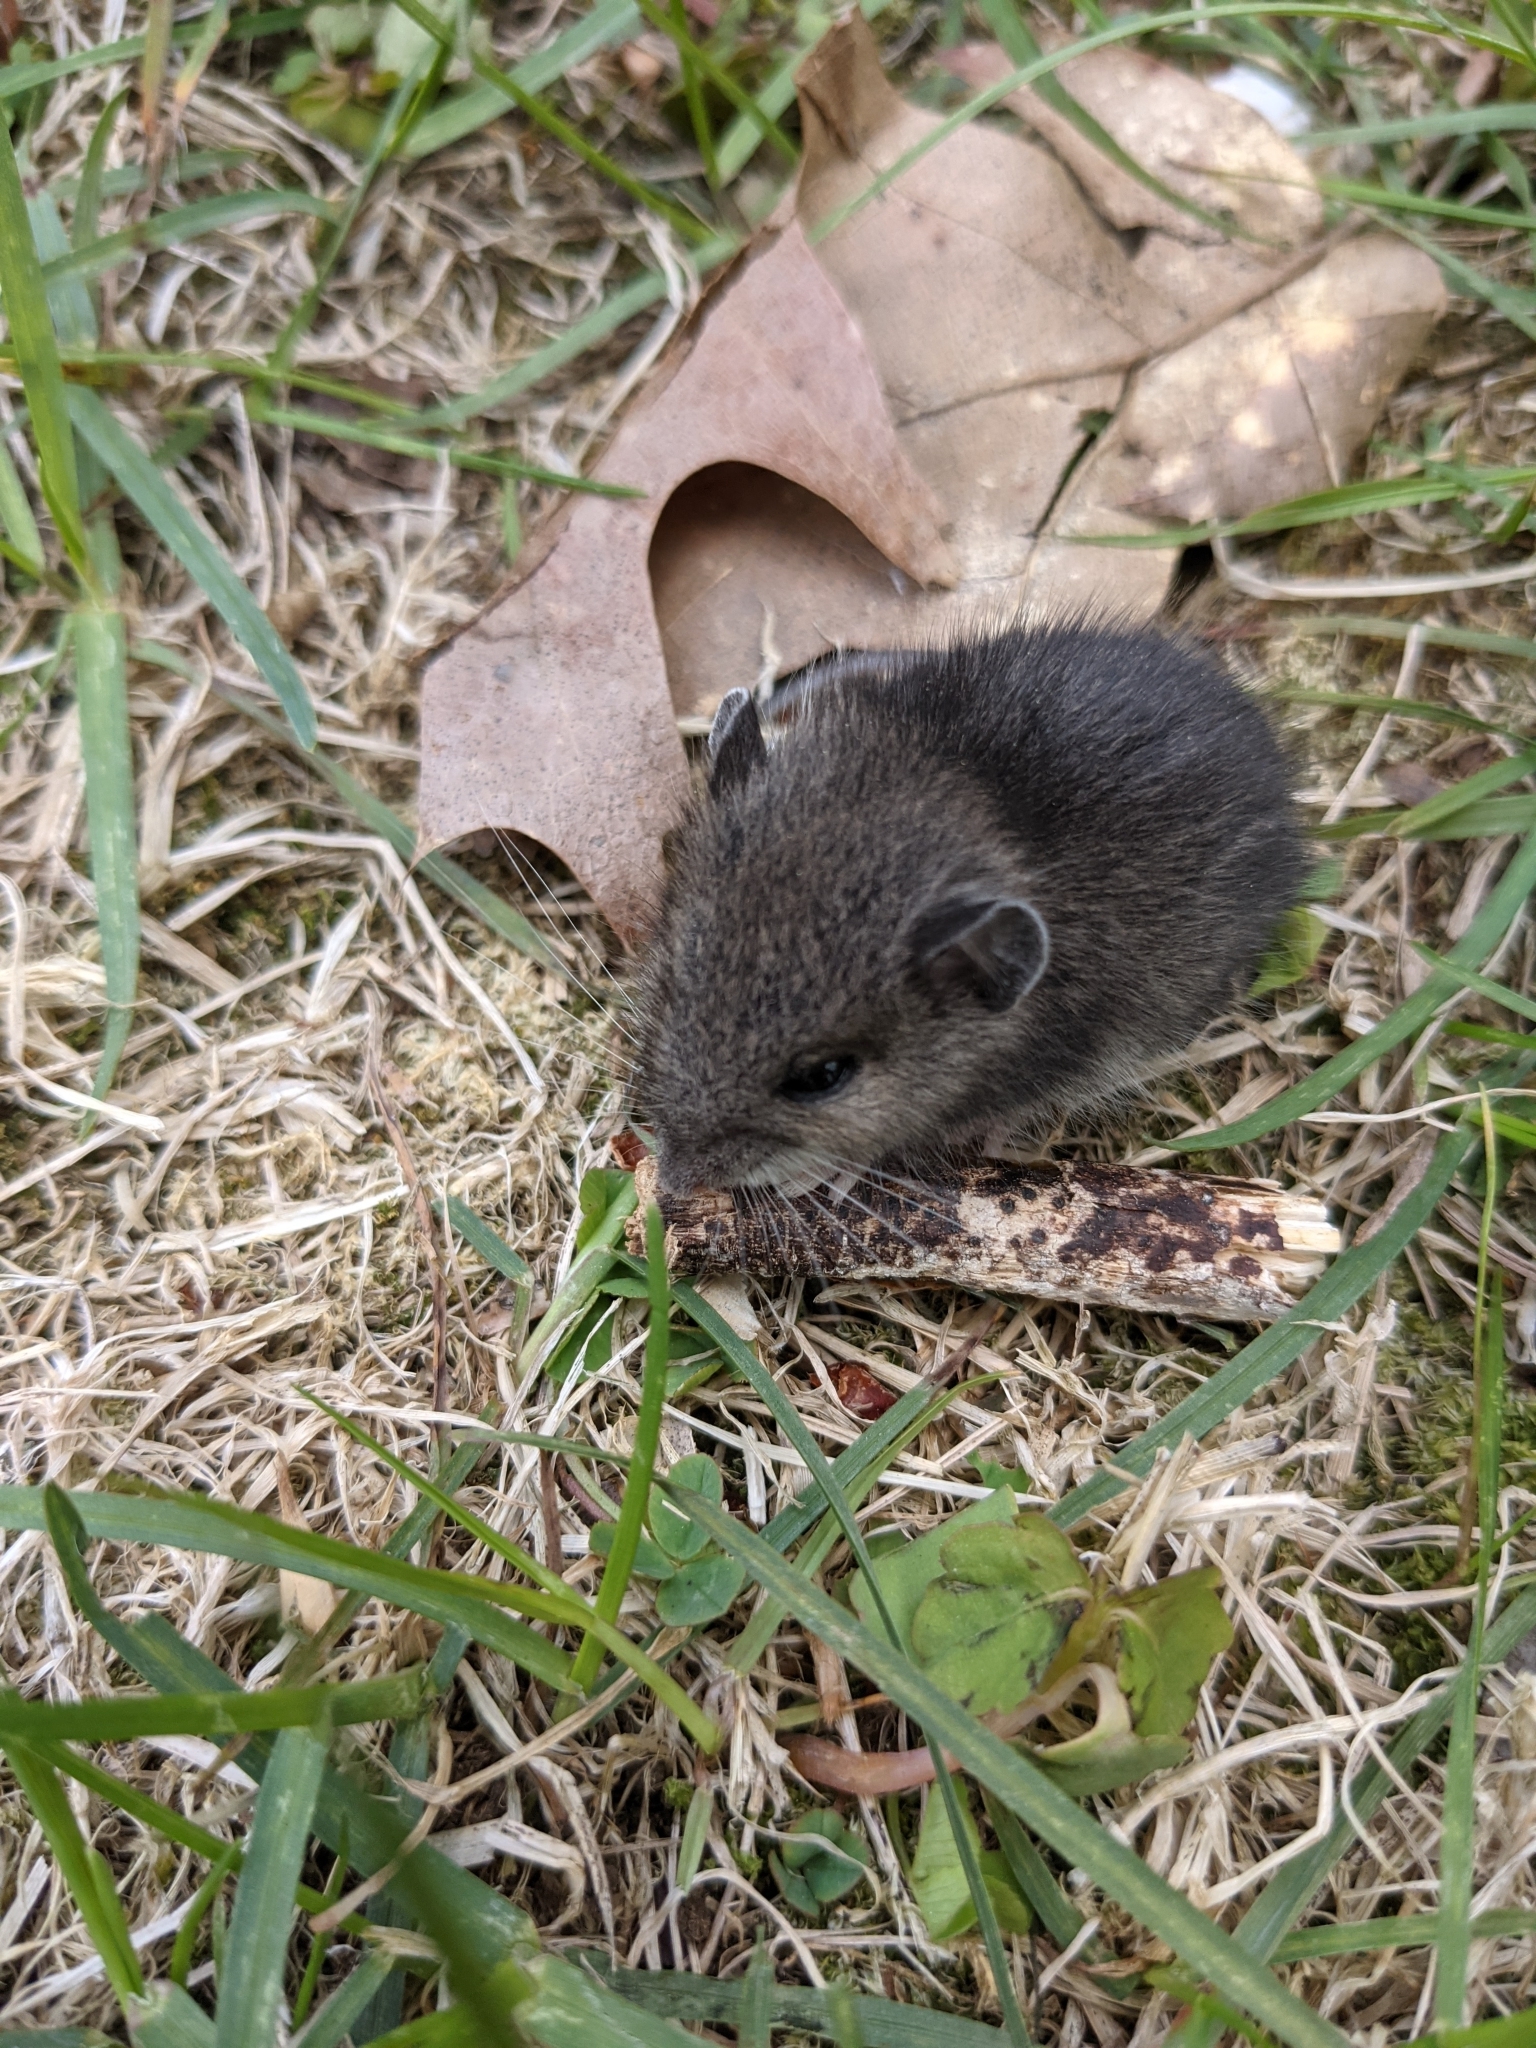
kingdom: Animalia
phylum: Chordata
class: Mammalia
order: Rodentia
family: Cricetidae
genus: Peromyscus
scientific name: Peromyscus leucopus
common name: White-footed deermouse
